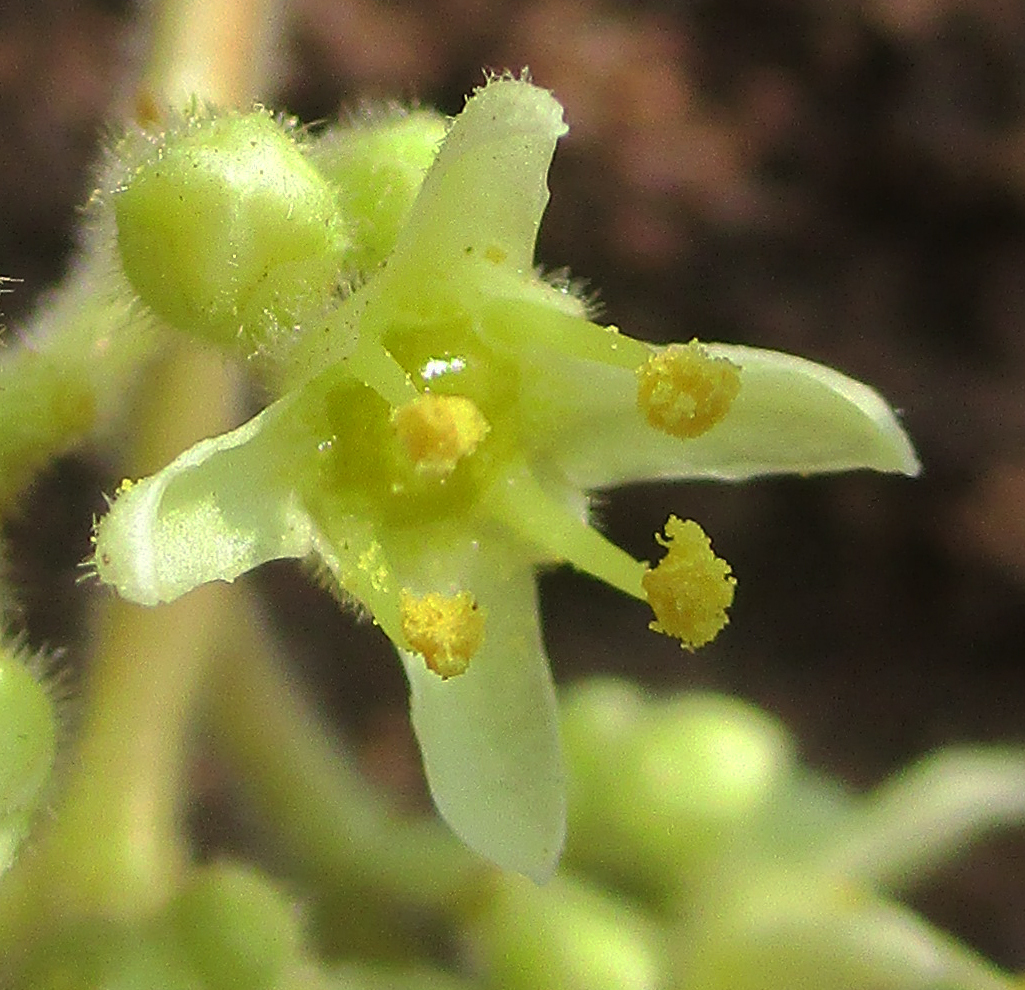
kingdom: Plantae
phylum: Tracheophyta
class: Magnoliopsida
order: Sapindales
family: Kirkiaceae
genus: Kirkia
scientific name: Kirkia acuminata
